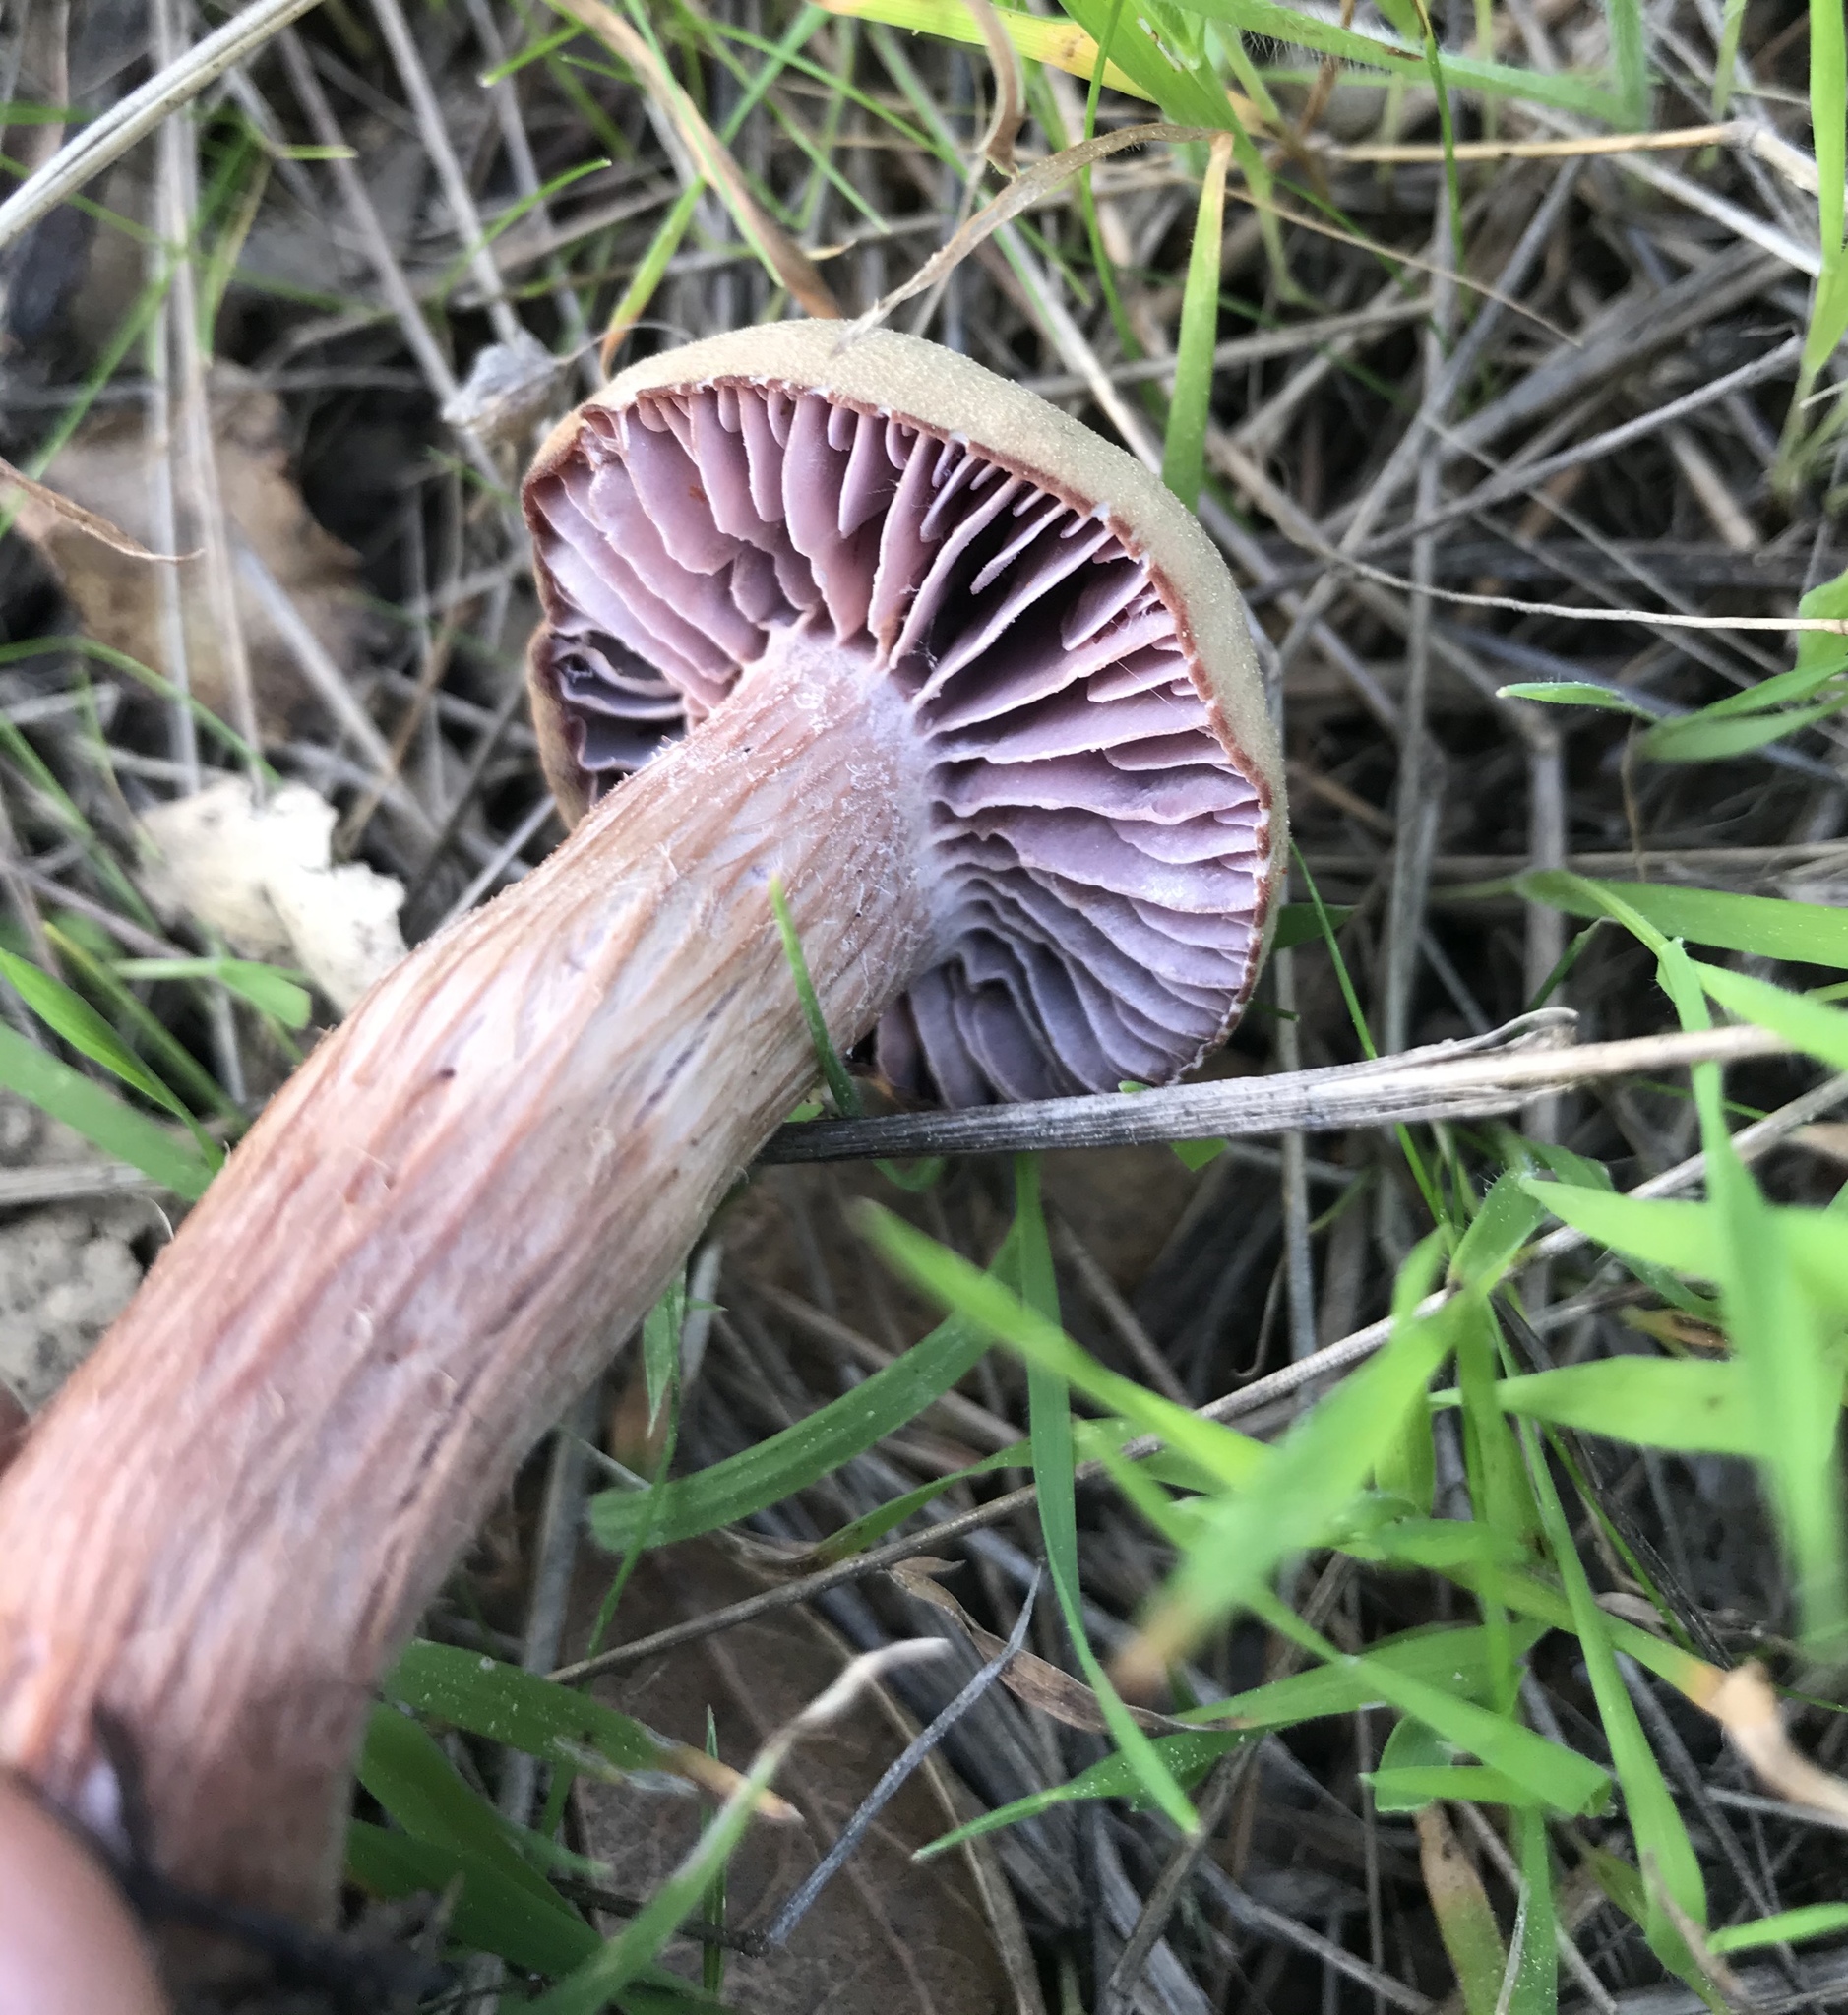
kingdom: Fungi
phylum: Basidiomycota
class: Agaricomycetes
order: Agaricales
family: Hydnangiaceae
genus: Laccaria
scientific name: Laccaria amethysteo-occidentalis
